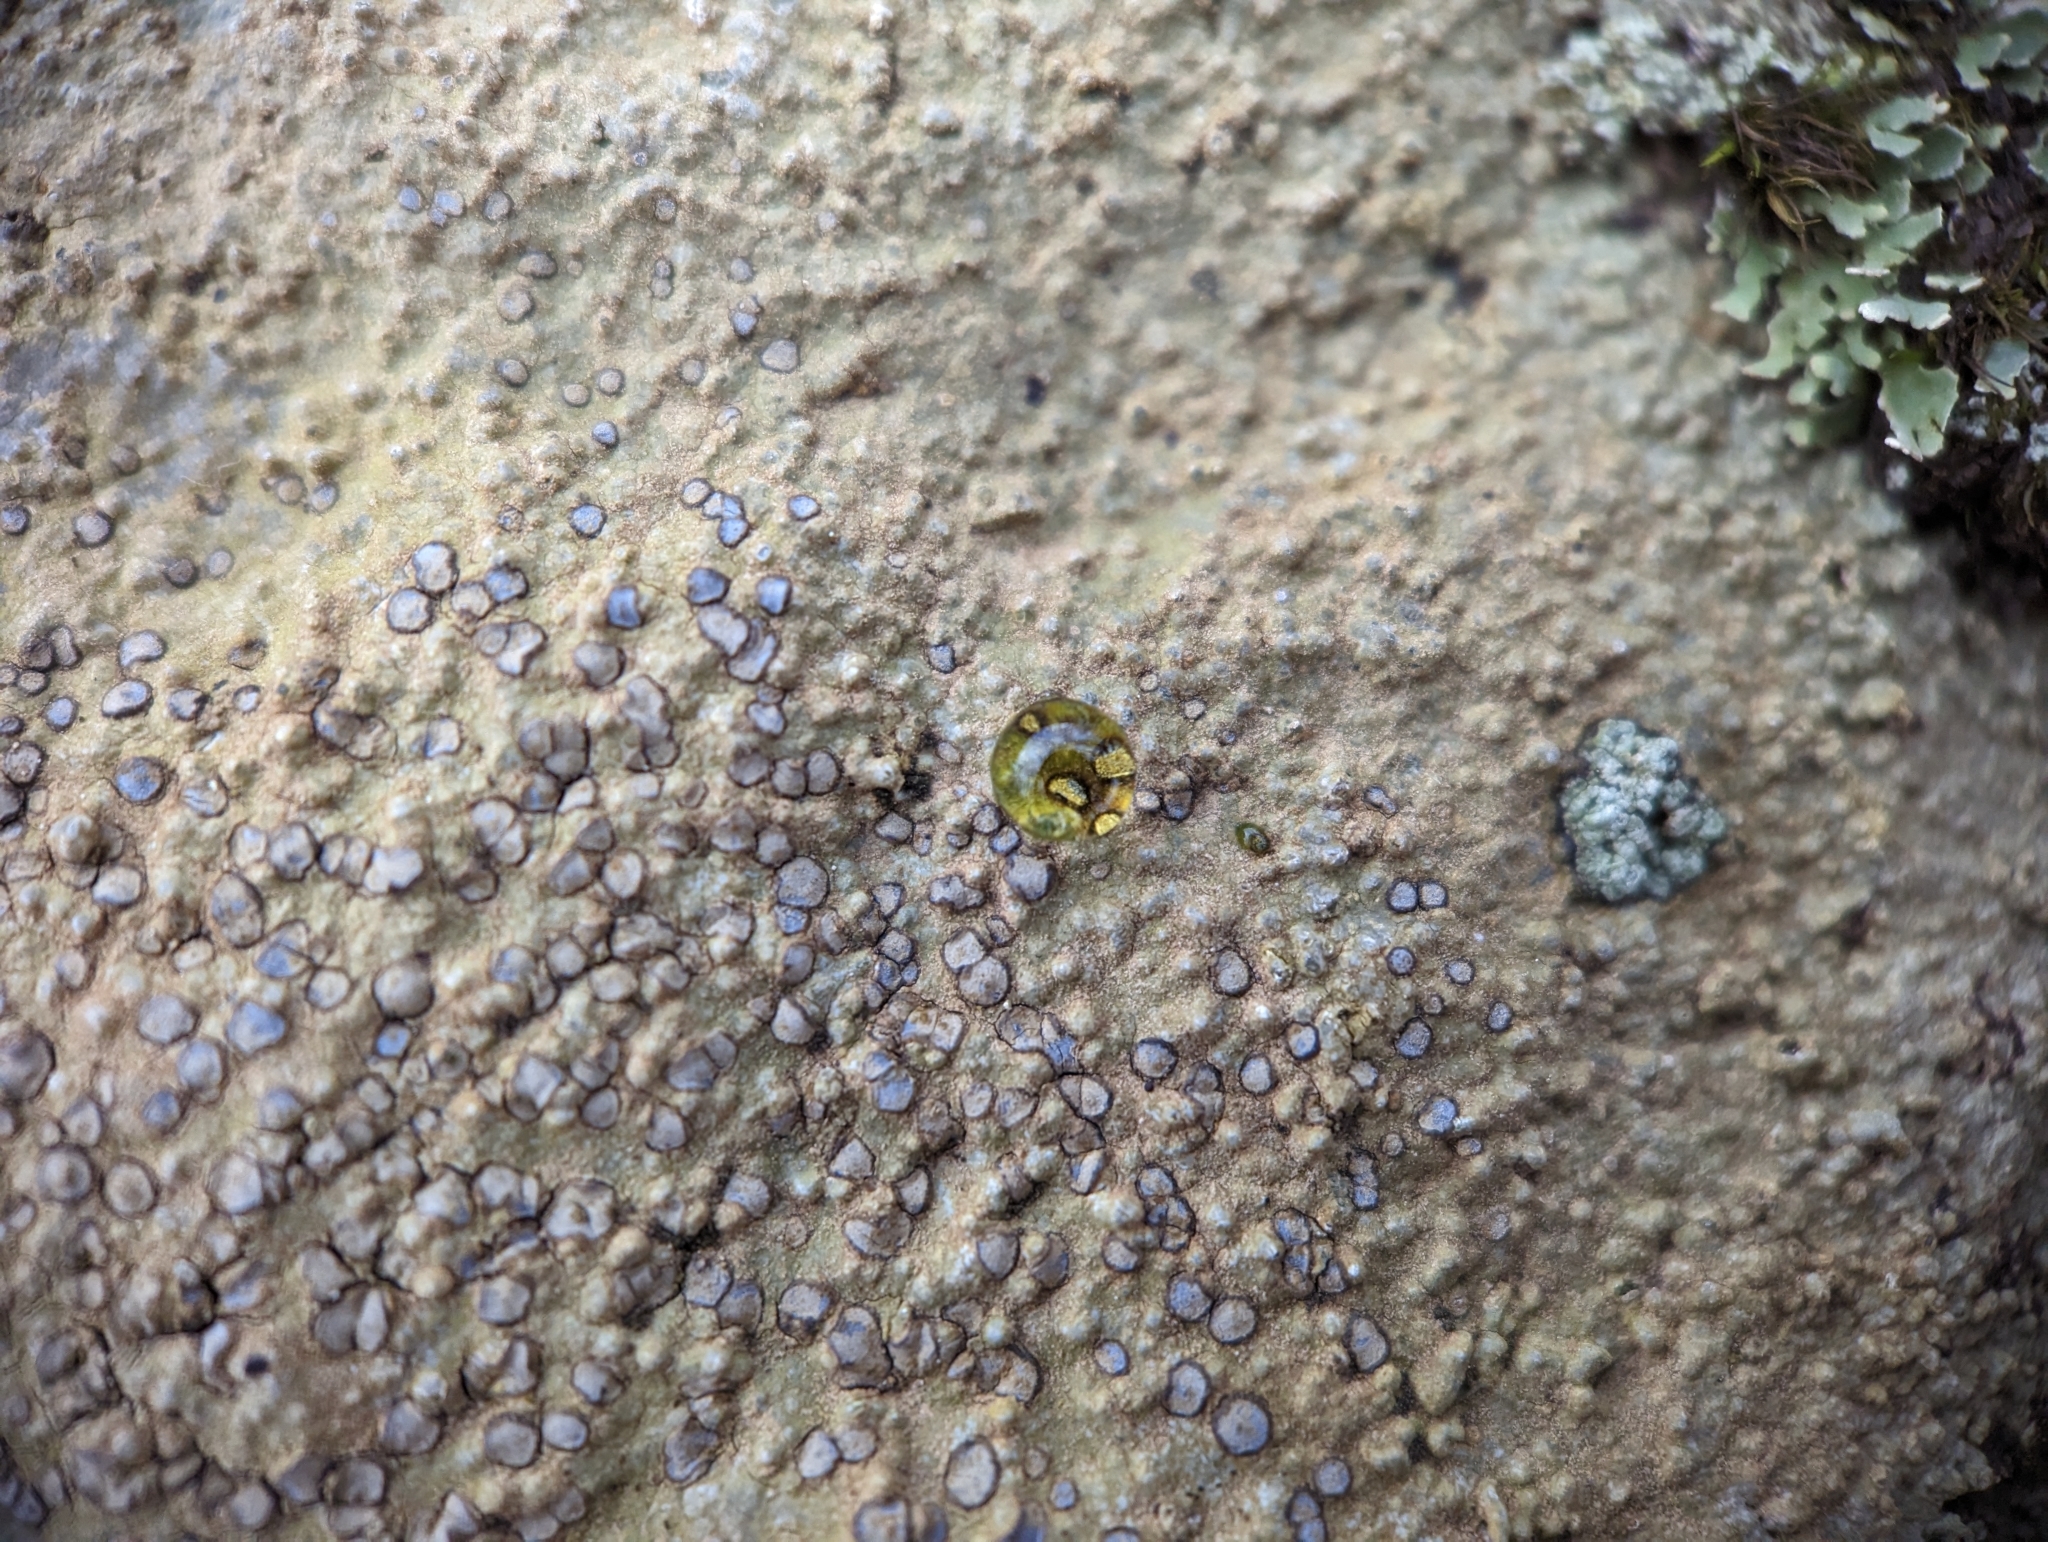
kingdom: Fungi
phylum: Ascomycota
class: Lecanoromycetes
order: Lecideales
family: Lecideaceae
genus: Porpidia
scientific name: Porpidia albocaerulescens
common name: Smokey-eyed boulder lichen
